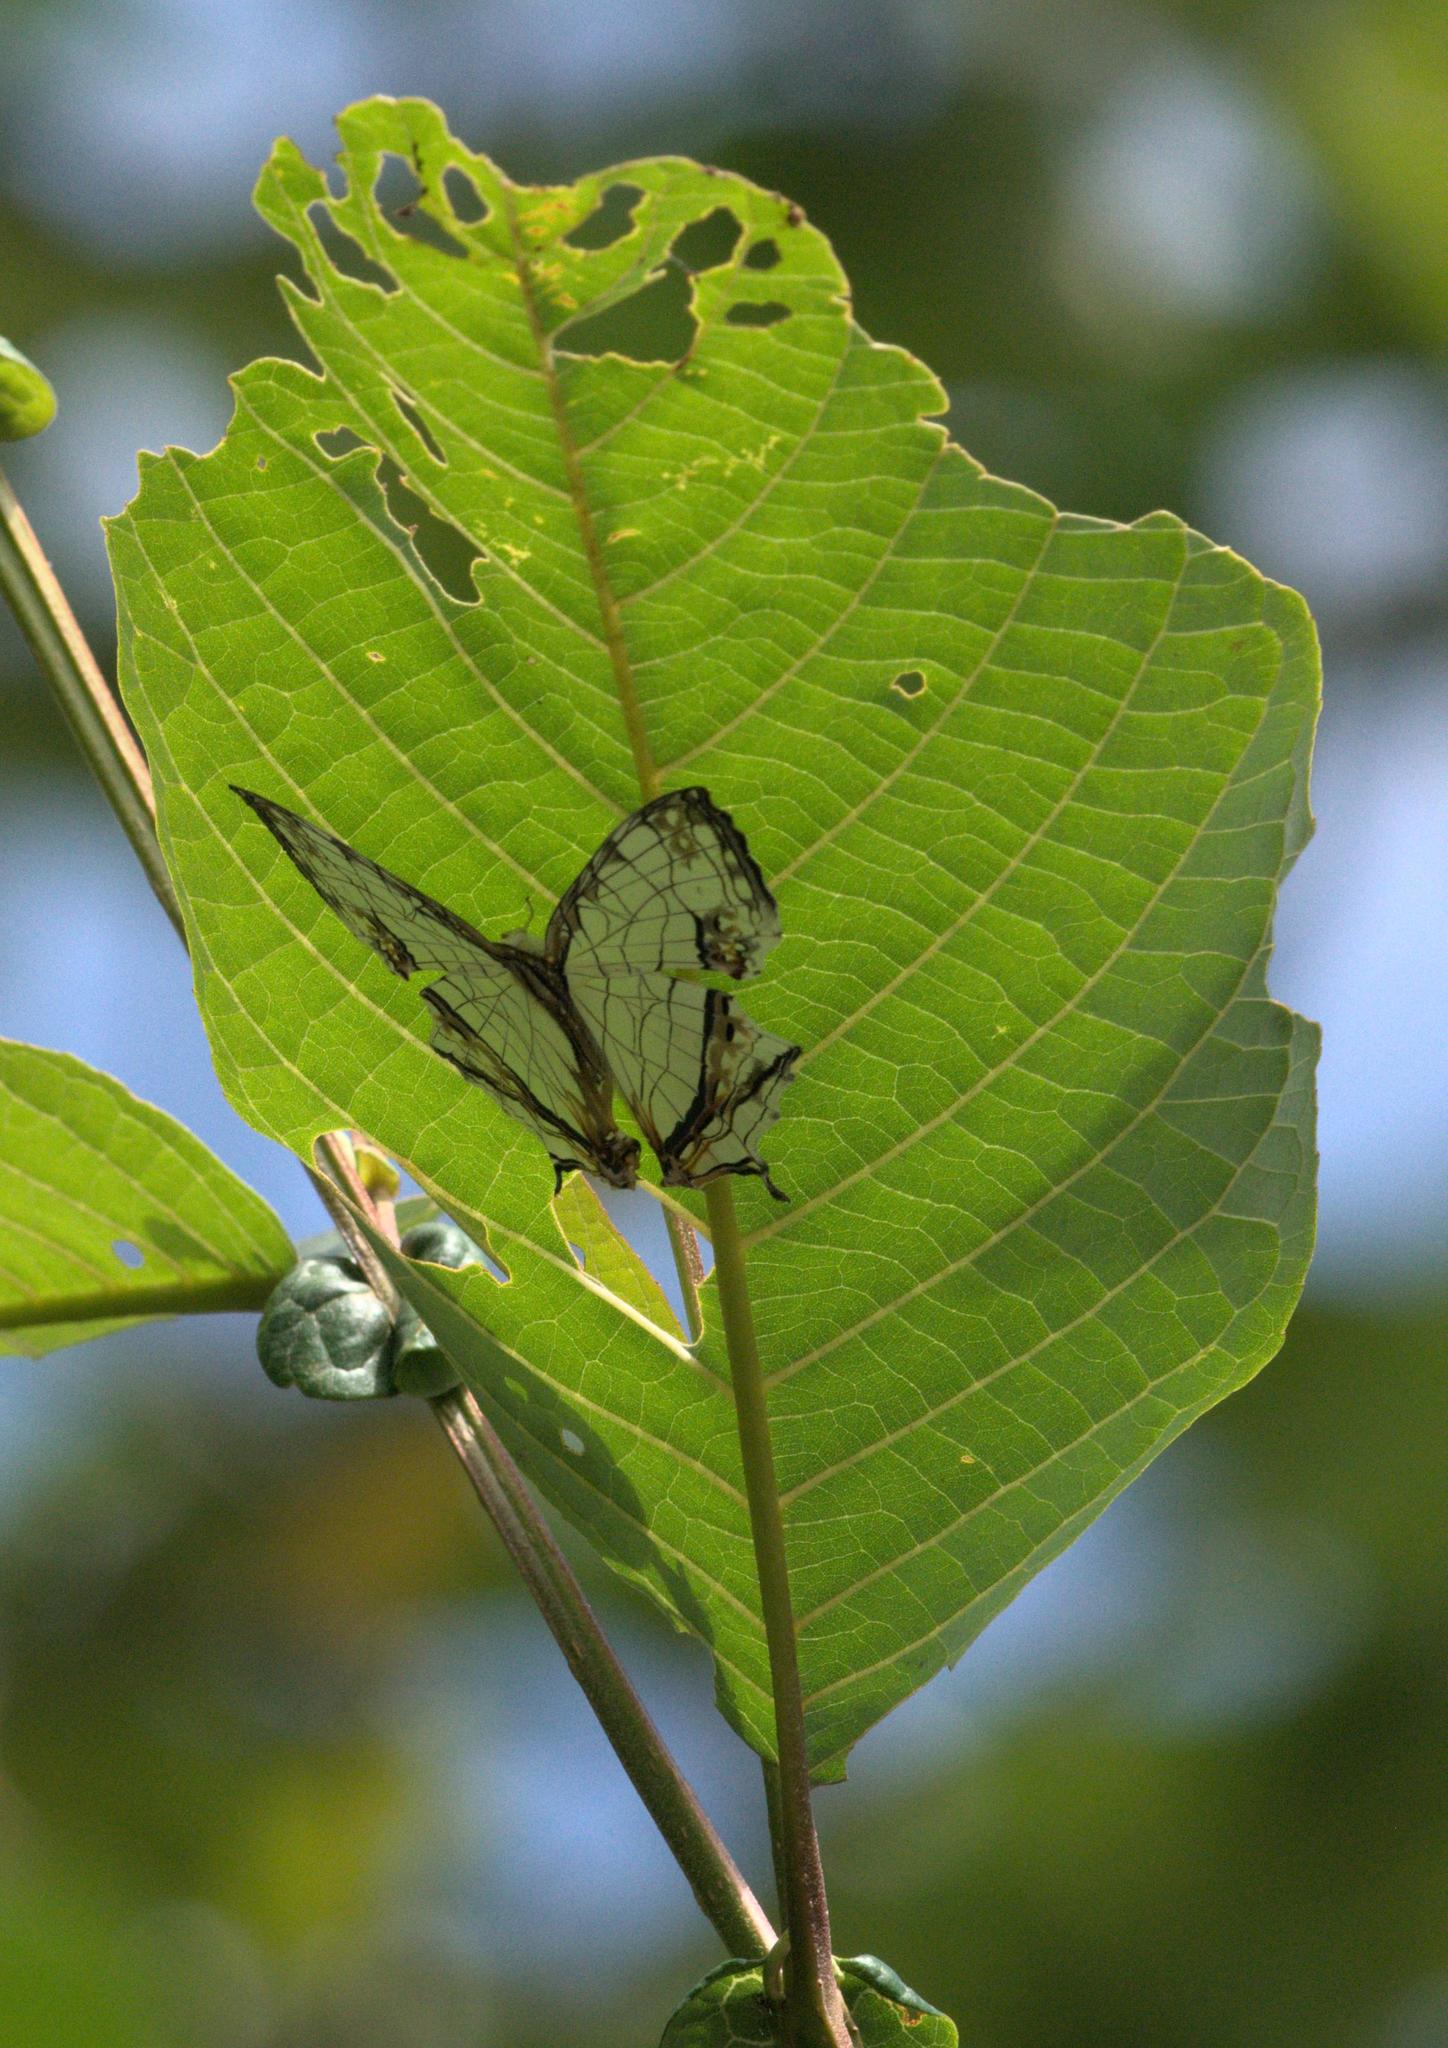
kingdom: Animalia
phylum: Arthropoda
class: Insecta
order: Lepidoptera
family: Nymphalidae
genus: Cyrestis
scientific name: Cyrestis thyodamas
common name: Common mapwing
